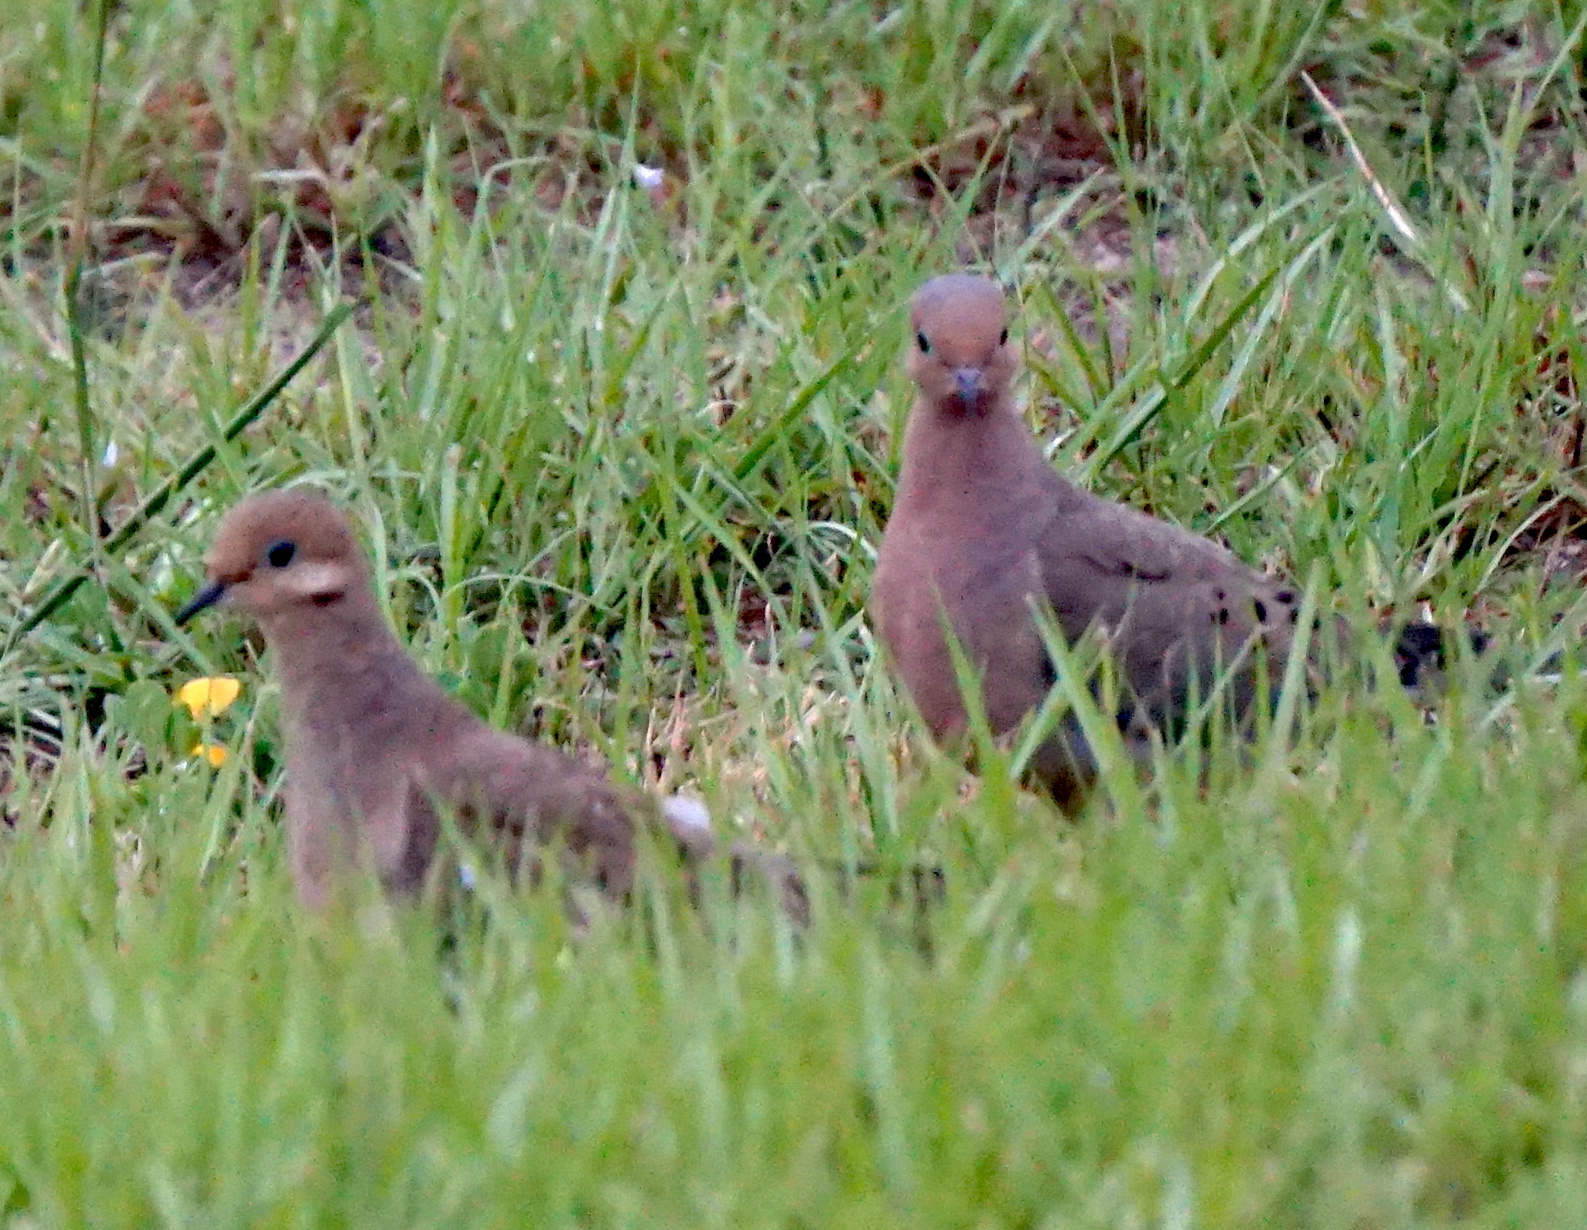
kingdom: Animalia
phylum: Chordata
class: Aves
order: Columbiformes
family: Columbidae
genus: Zenaida
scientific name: Zenaida macroura
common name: Mourning dove
